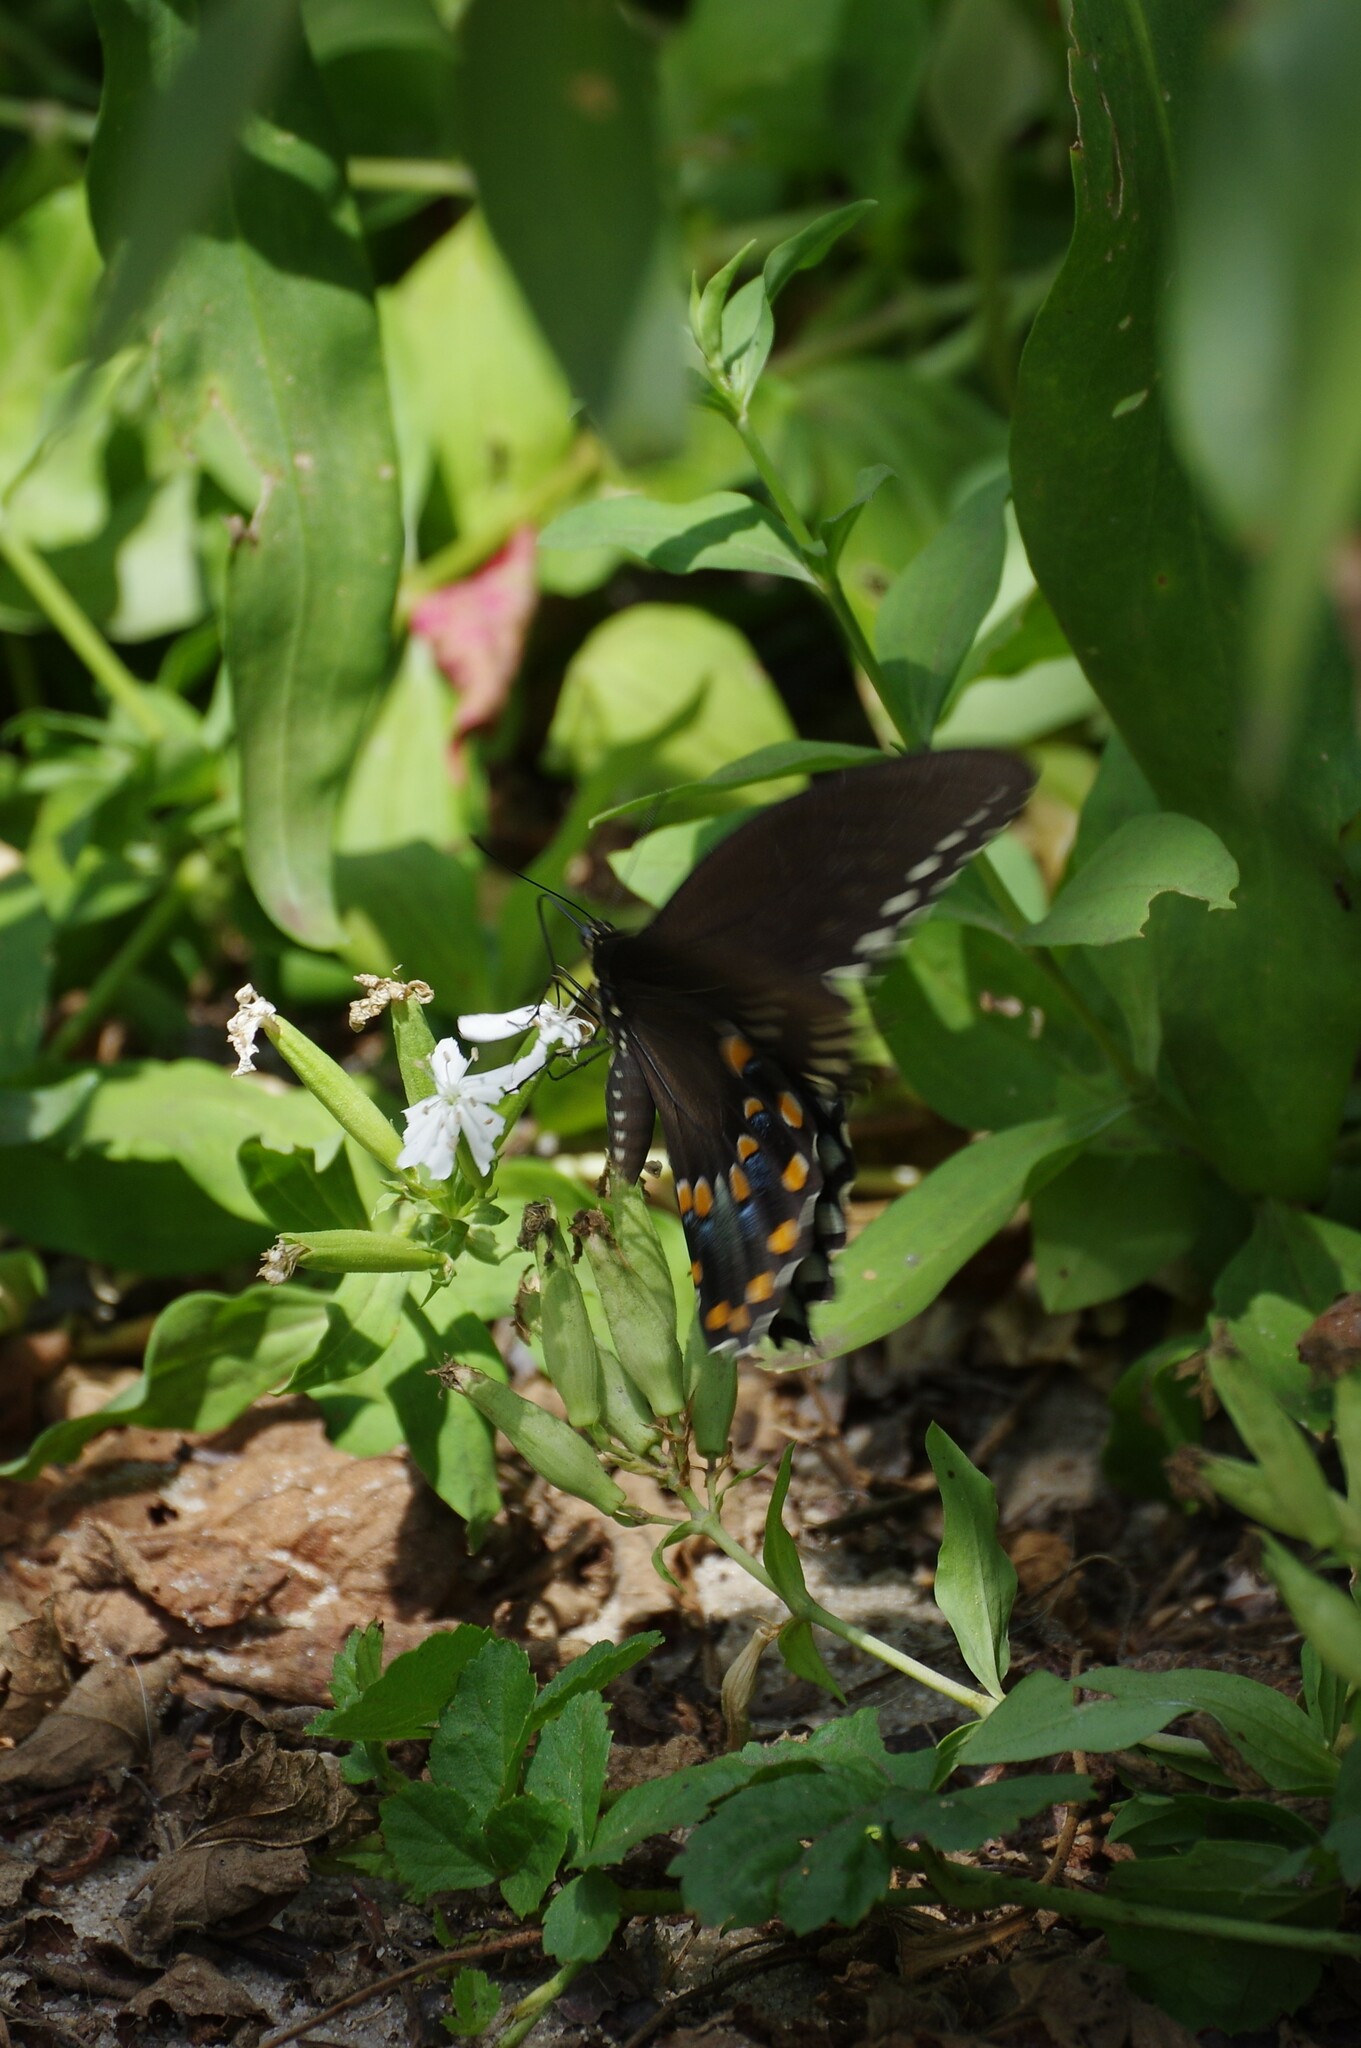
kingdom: Animalia
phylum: Arthropoda
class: Insecta
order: Lepidoptera
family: Papilionidae
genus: Papilio
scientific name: Papilio troilus
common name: Spicebush swallowtail
